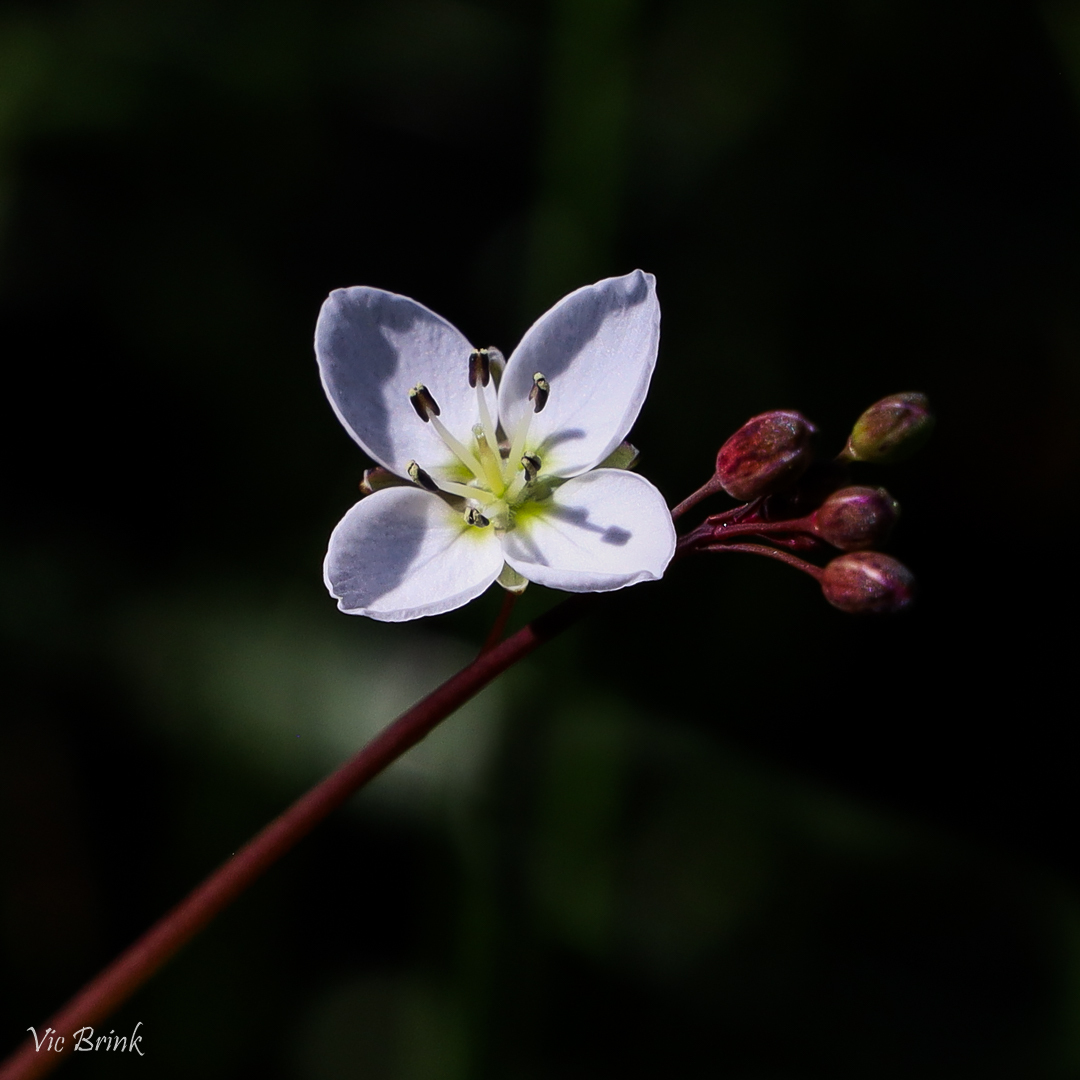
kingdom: Plantae
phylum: Tracheophyta
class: Magnoliopsida
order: Brassicales
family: Brassicaceae
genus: Heliophila
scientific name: Heliophila meyeri
